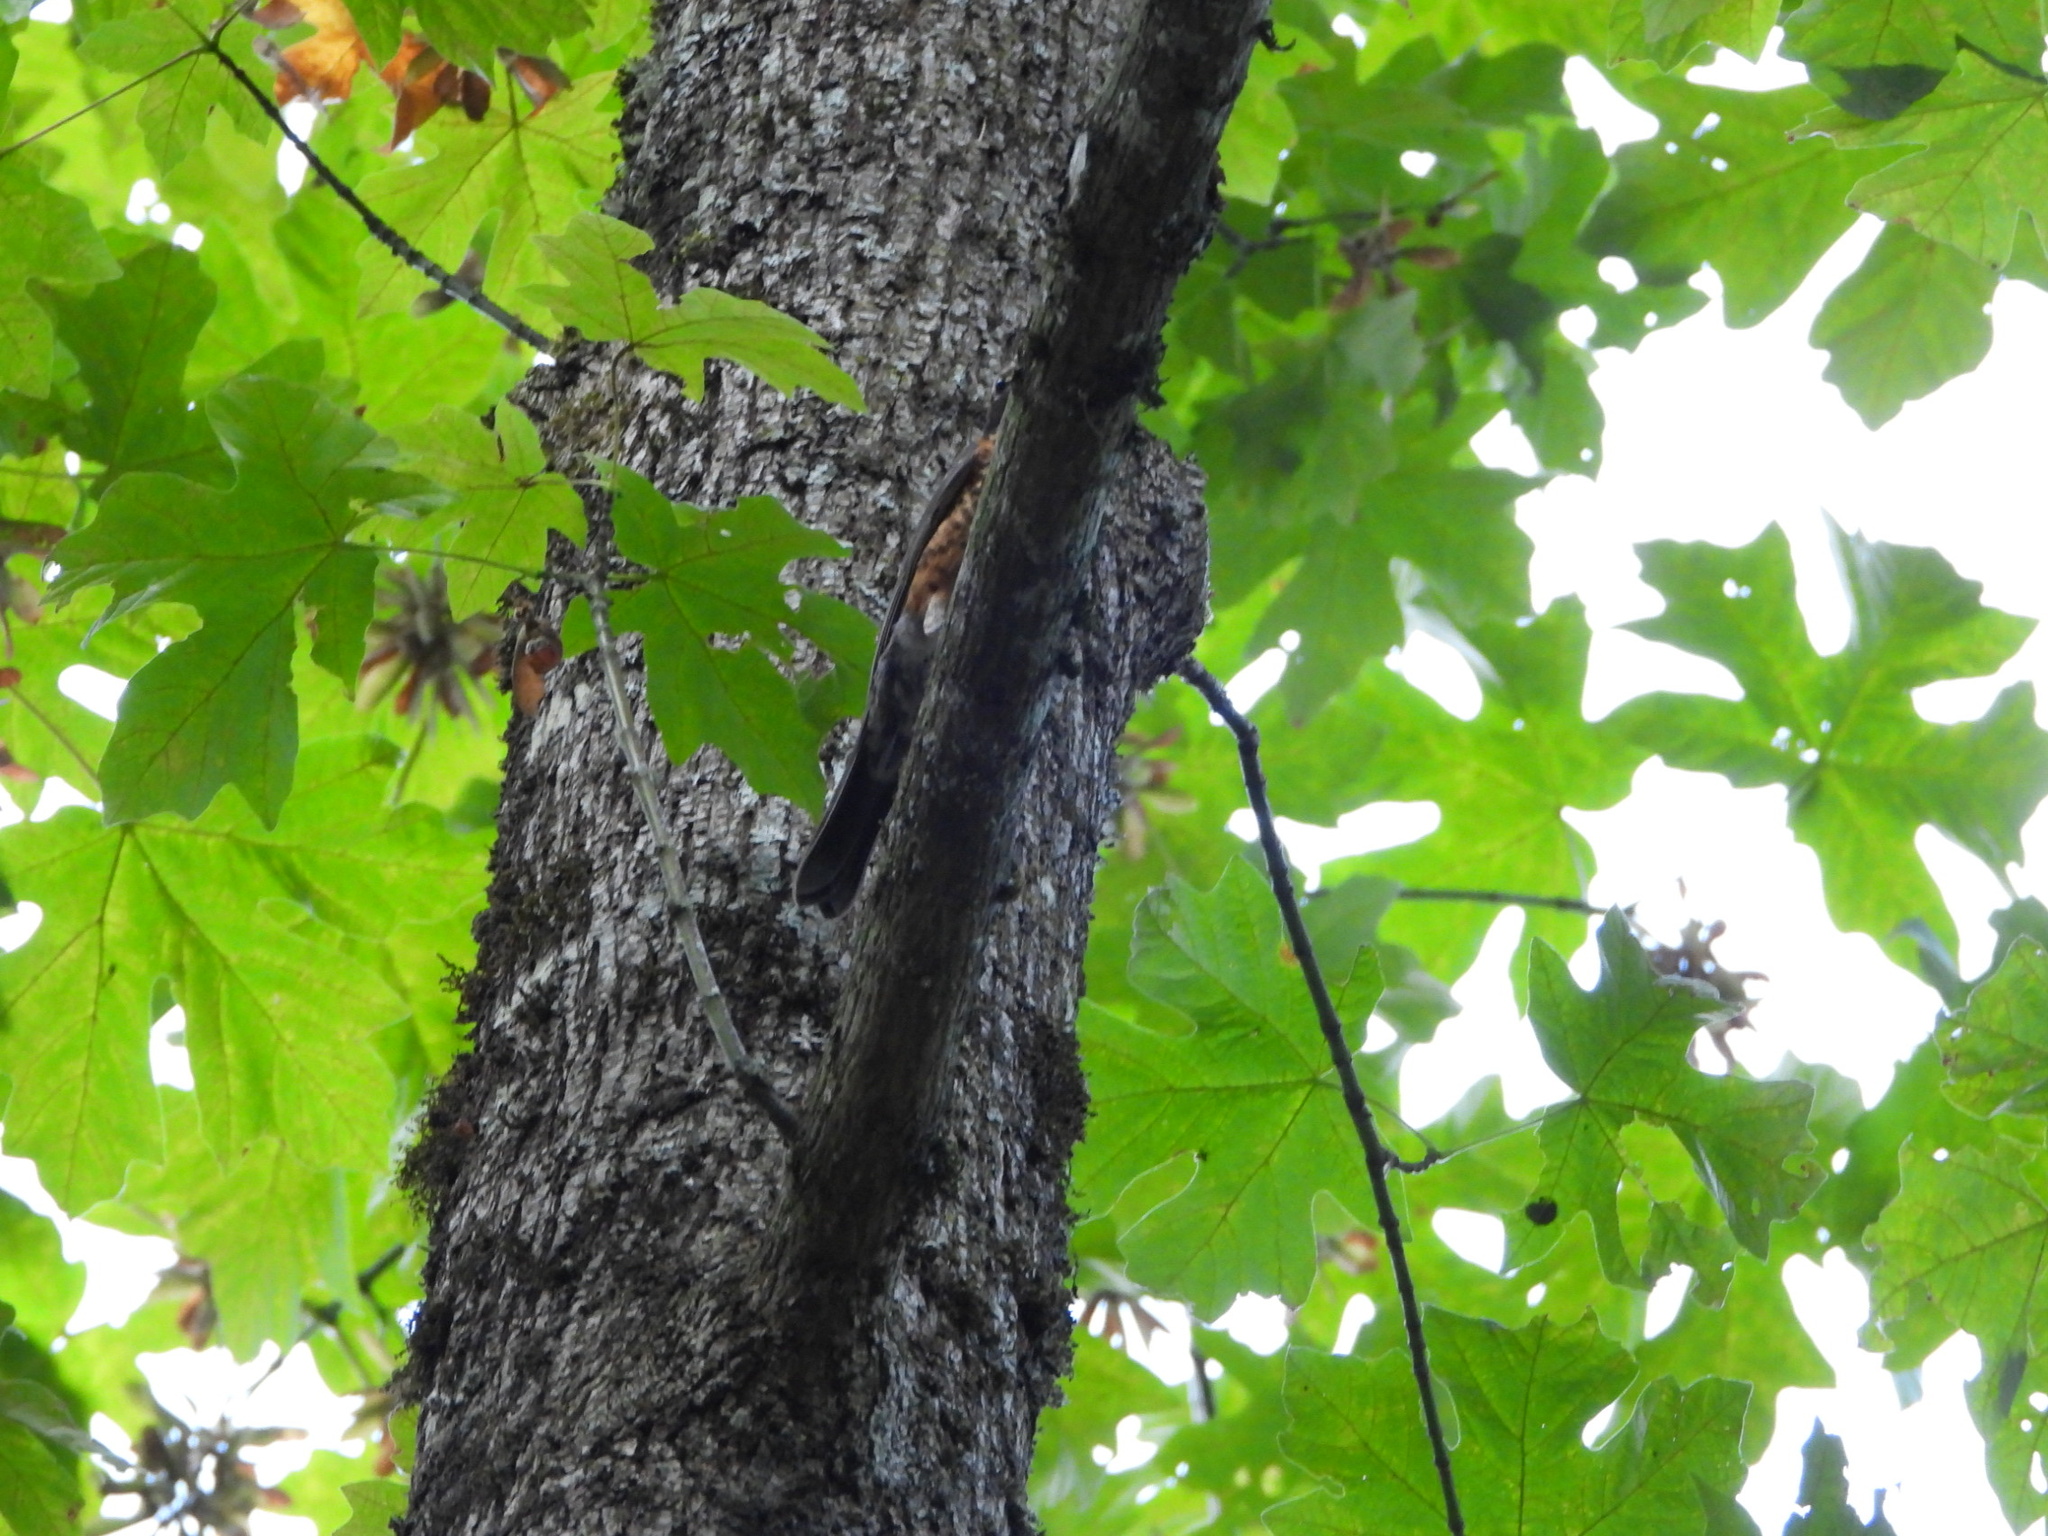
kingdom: Animalia
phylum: Chordata
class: Aves
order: Passeriformes
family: Turdidae
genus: Turdus
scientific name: Turdus migratorius
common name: American robin
